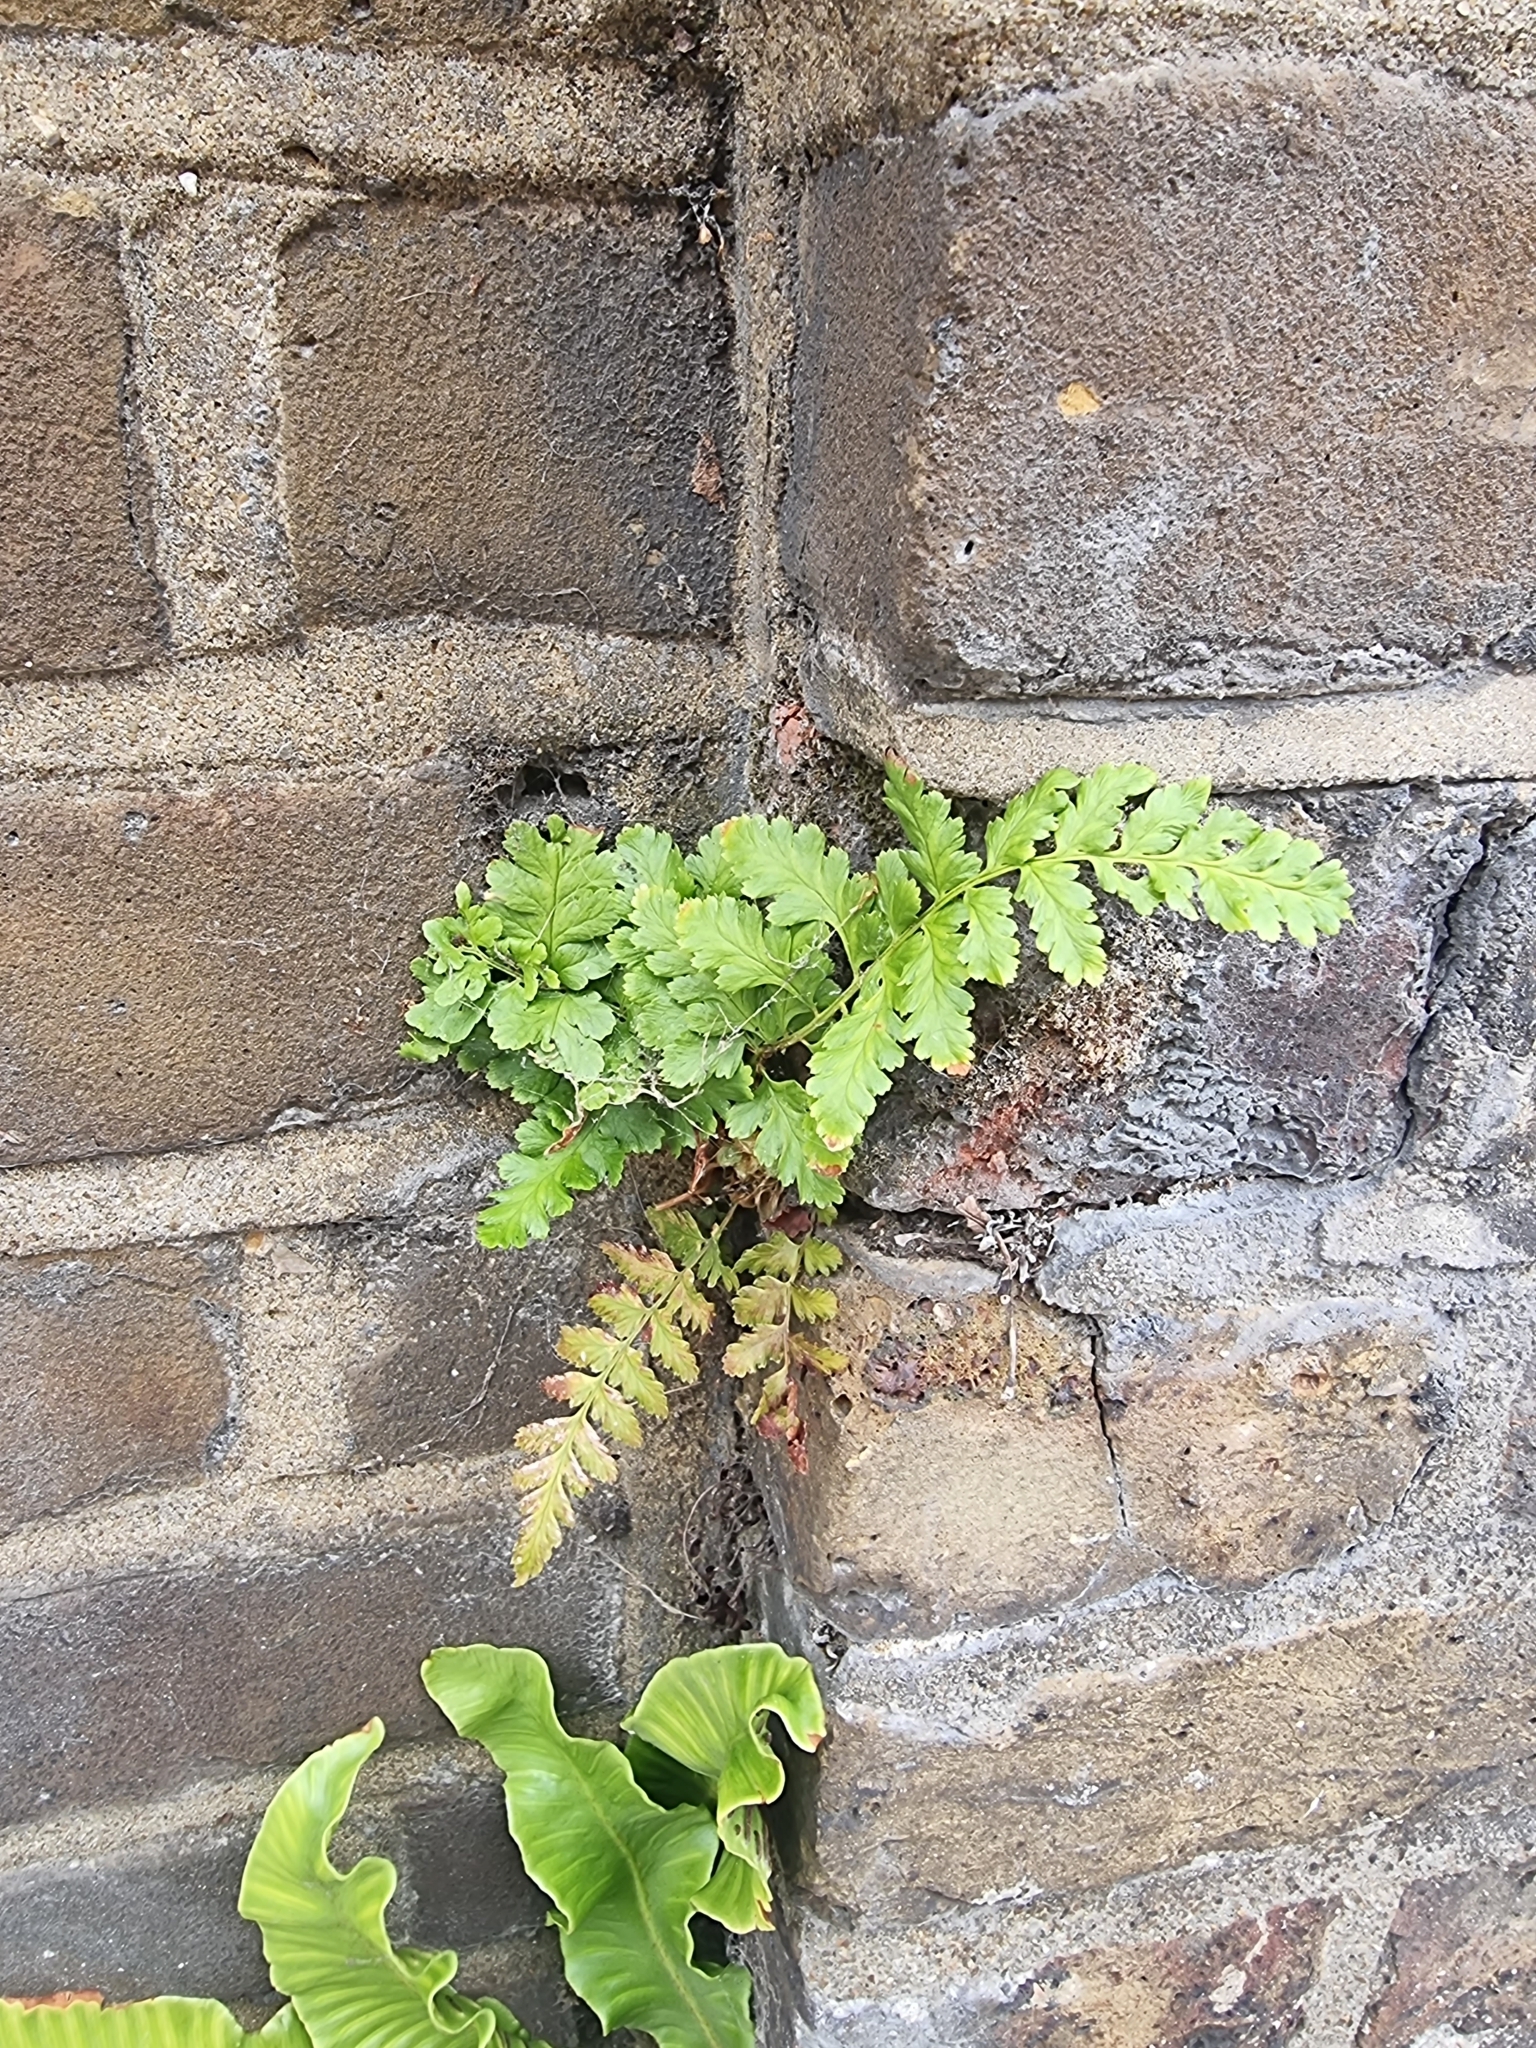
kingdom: Plantae
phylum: Tracheophyta
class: Polypodiopsida
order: Polypodiales
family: Aspleniaceae
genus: Asplenium
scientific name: Asplenium adiantum-nigrum
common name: Black spleenwort
